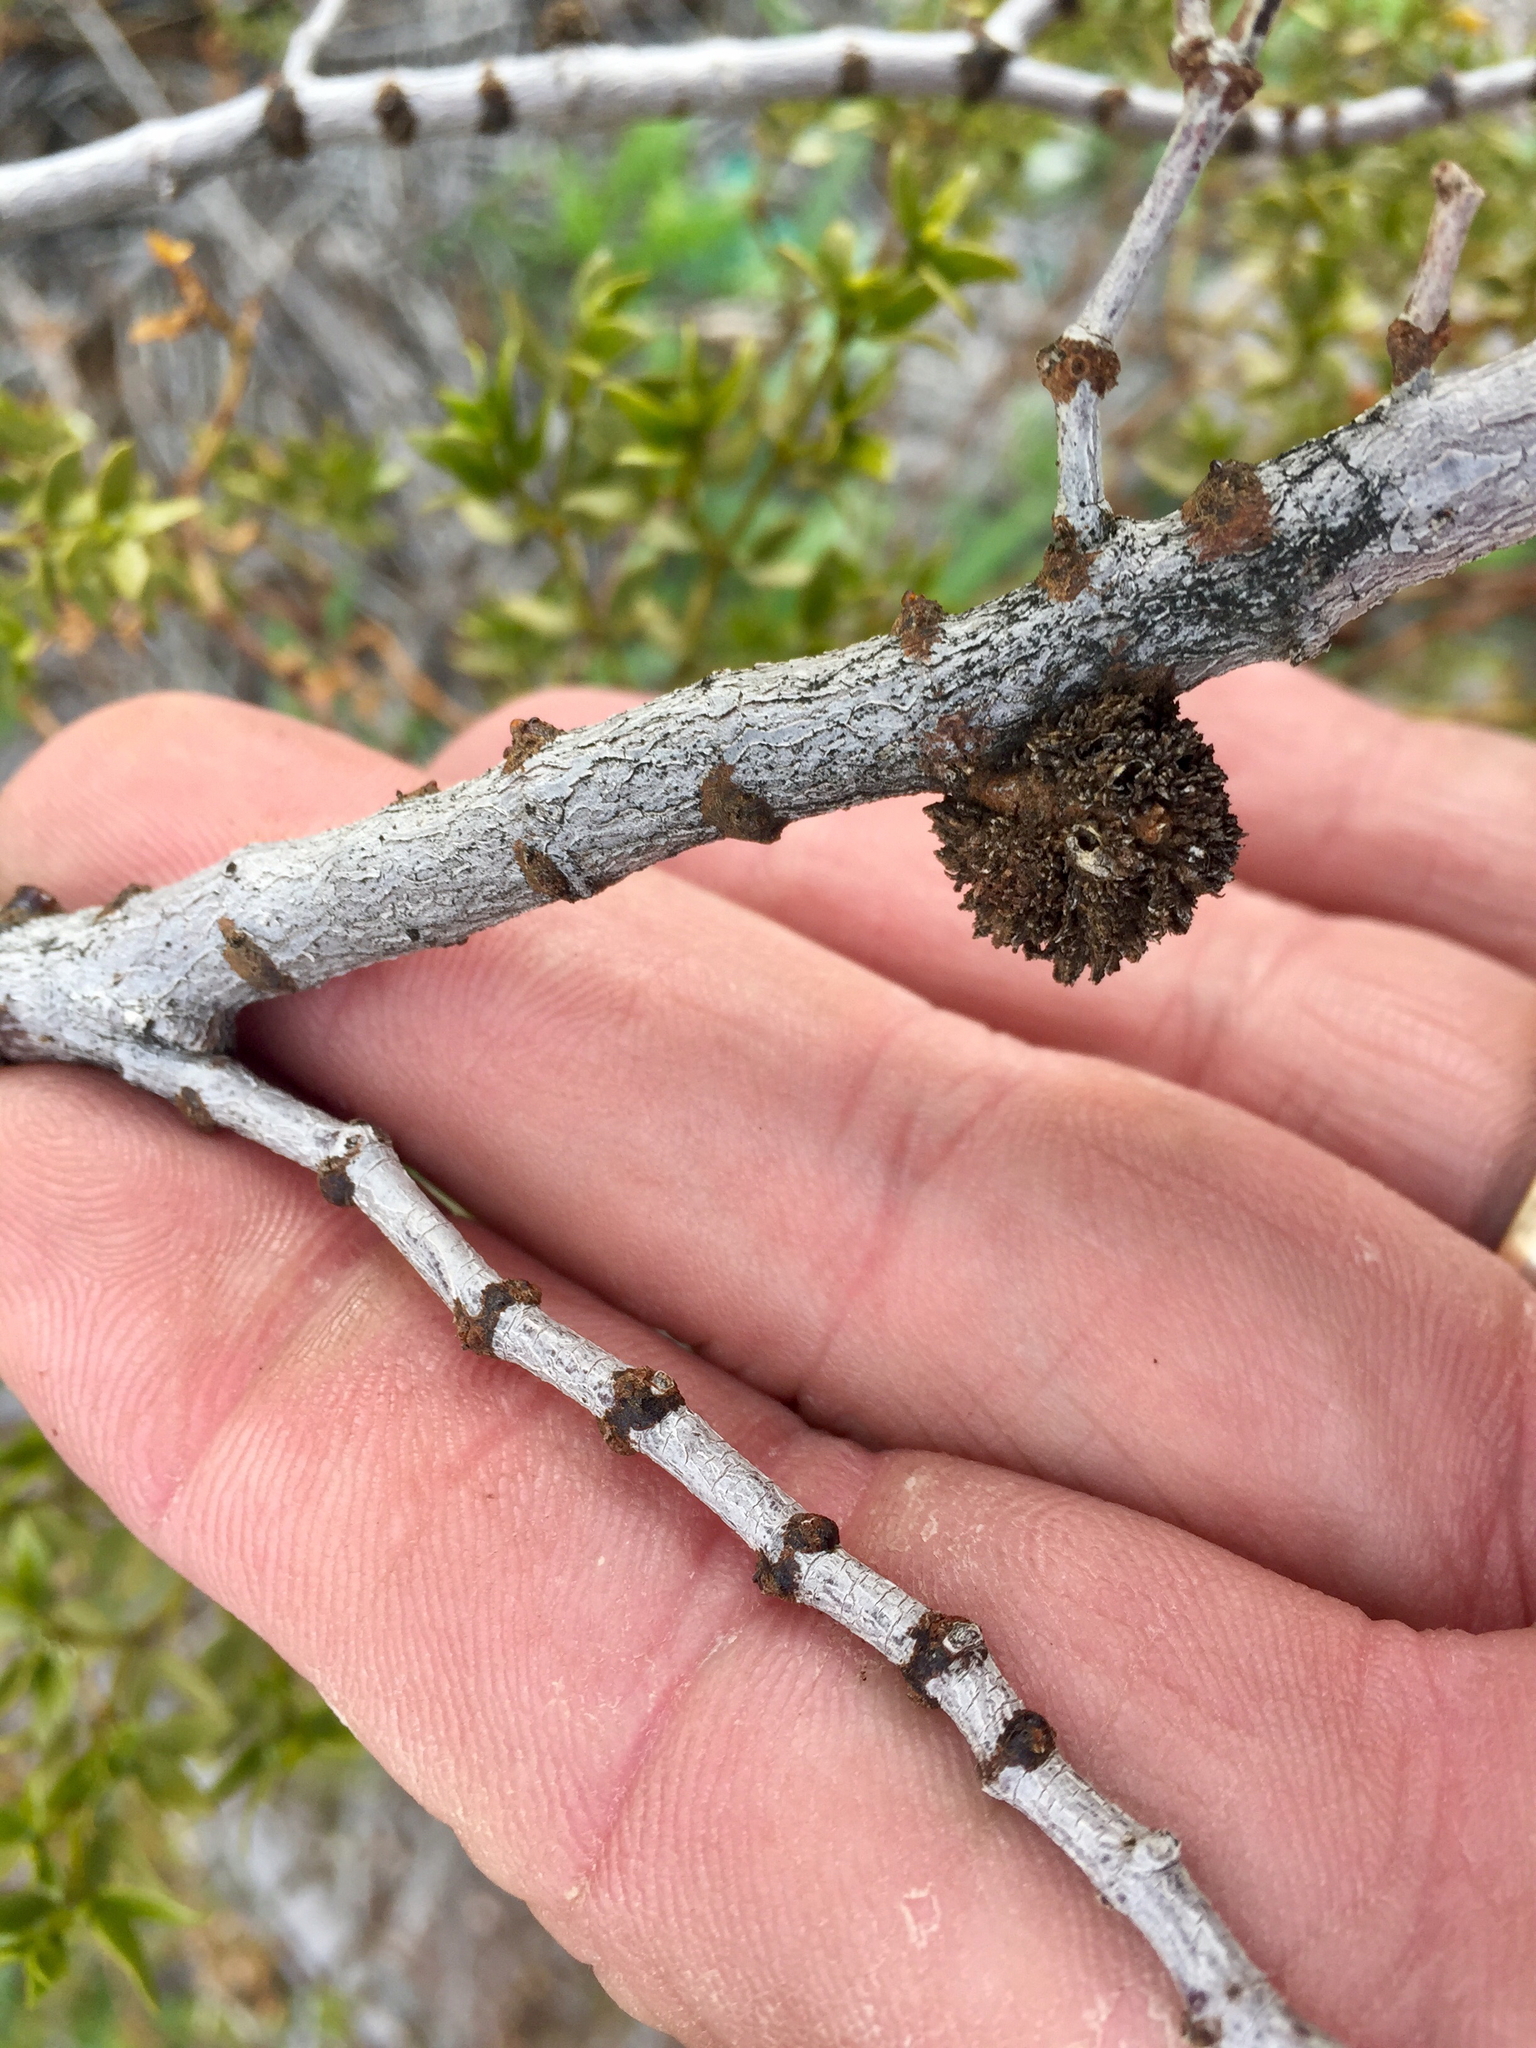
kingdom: Animalia
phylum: Arthropoda
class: Insecta
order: Diptera
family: Cecidomyiidae
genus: Asphondylia
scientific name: Asphondylia auripila
